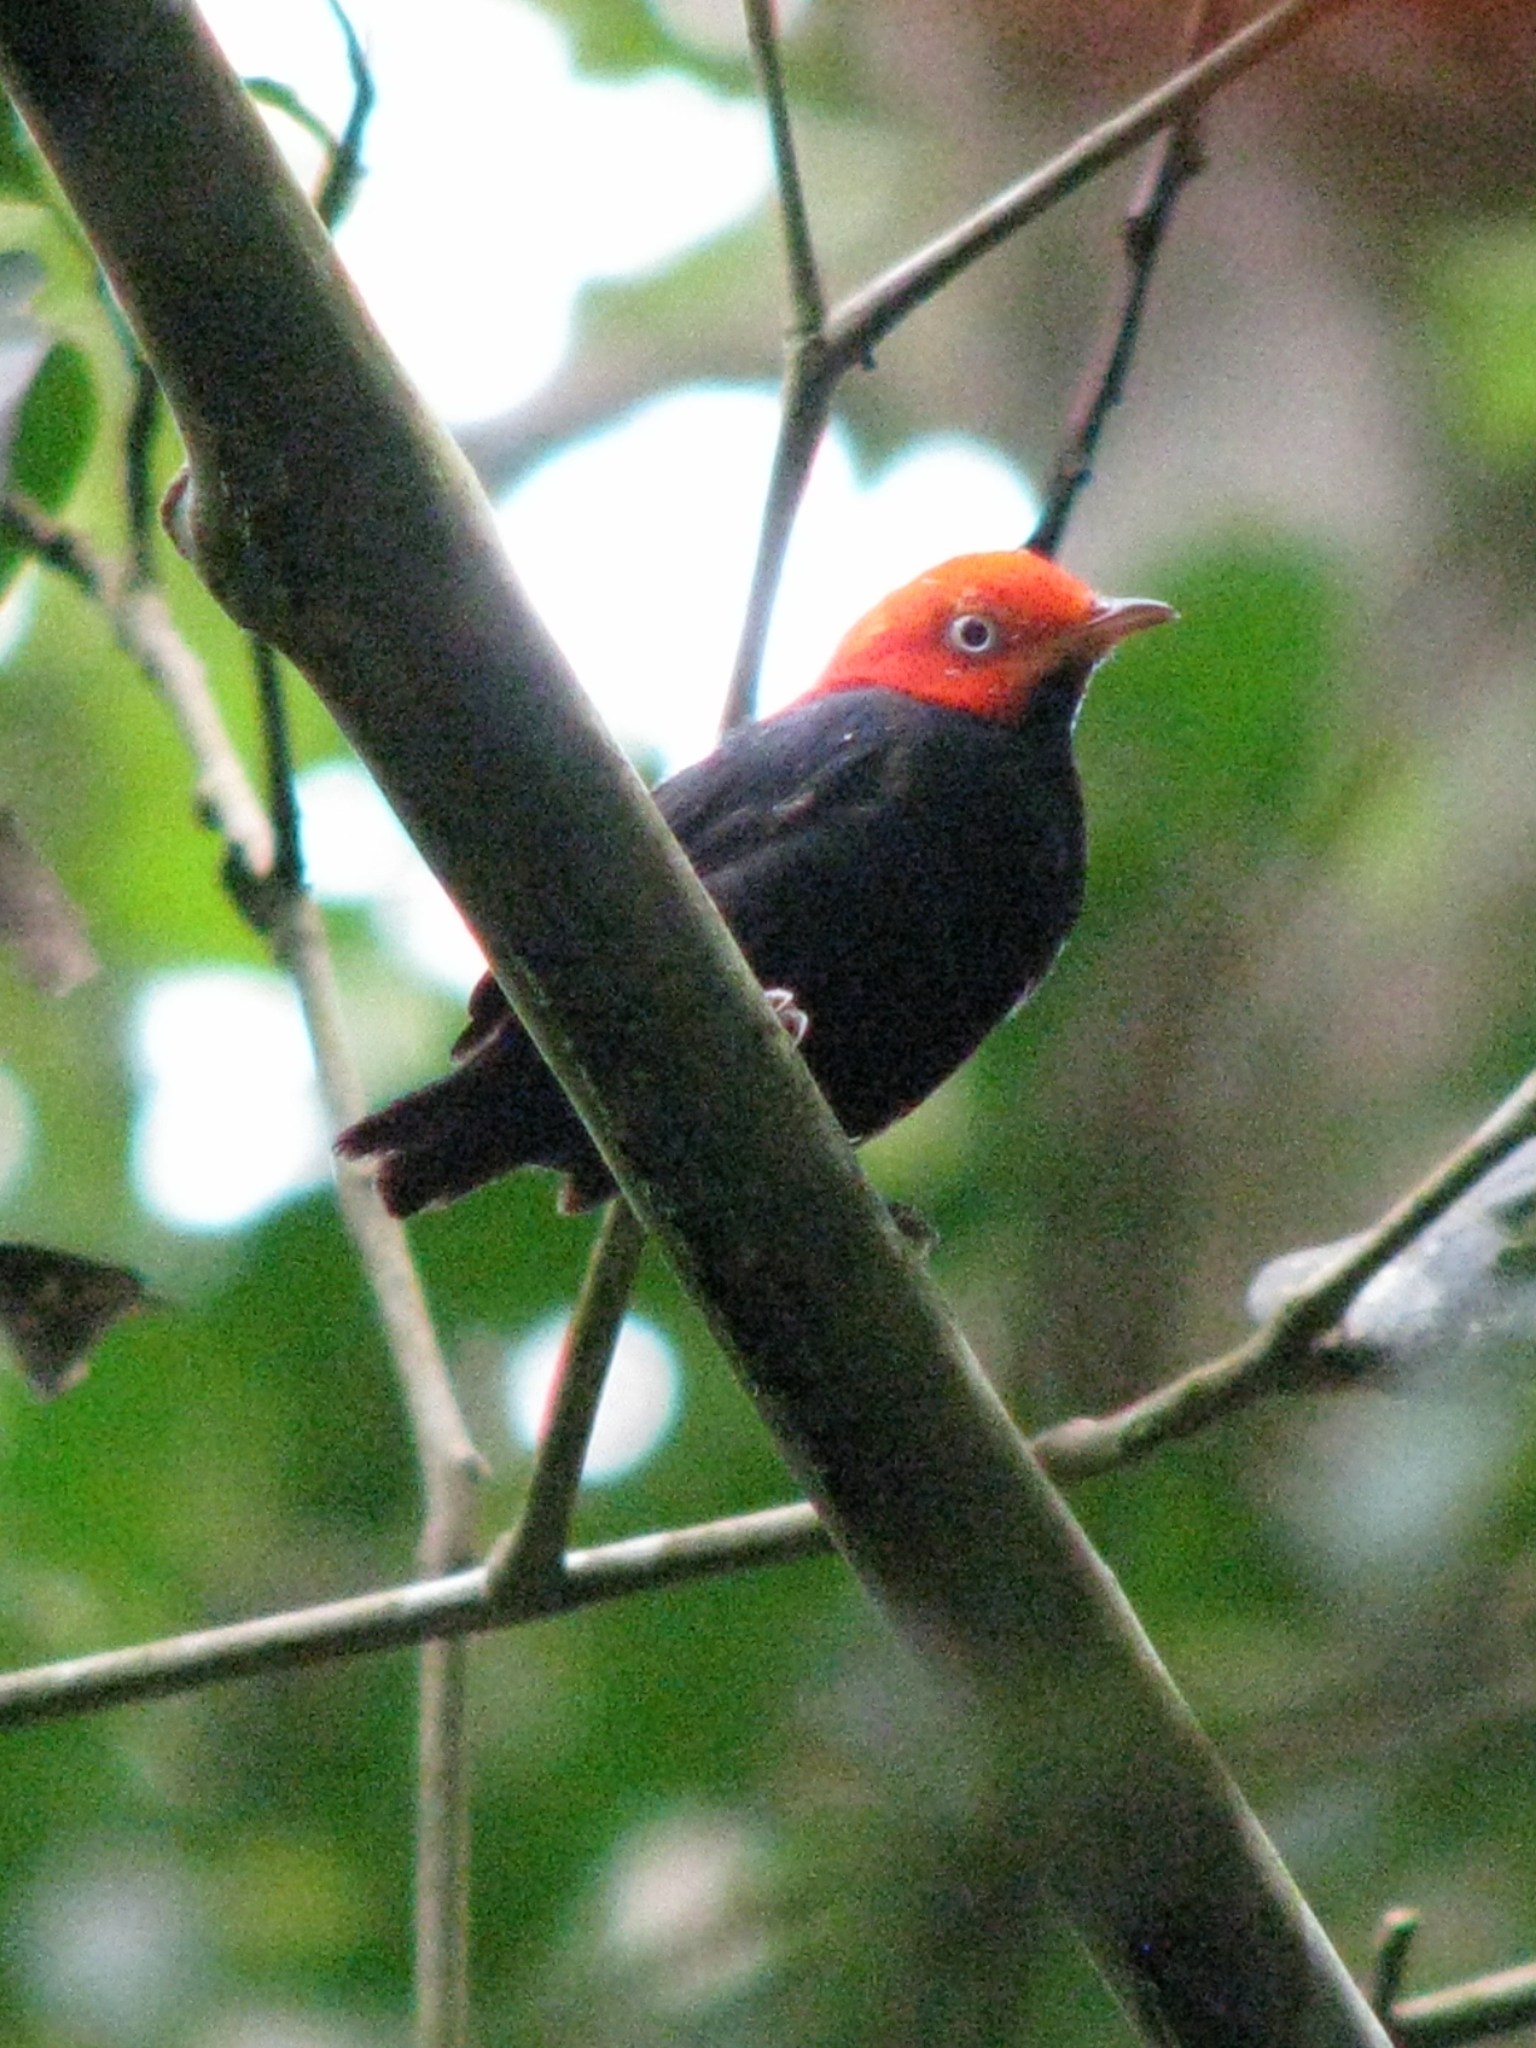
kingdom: Animalia
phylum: Chordata
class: Aves
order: Passeriformes
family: Pipridae
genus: Pipra
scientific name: Pipra mentalis
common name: Red-capped manakin
